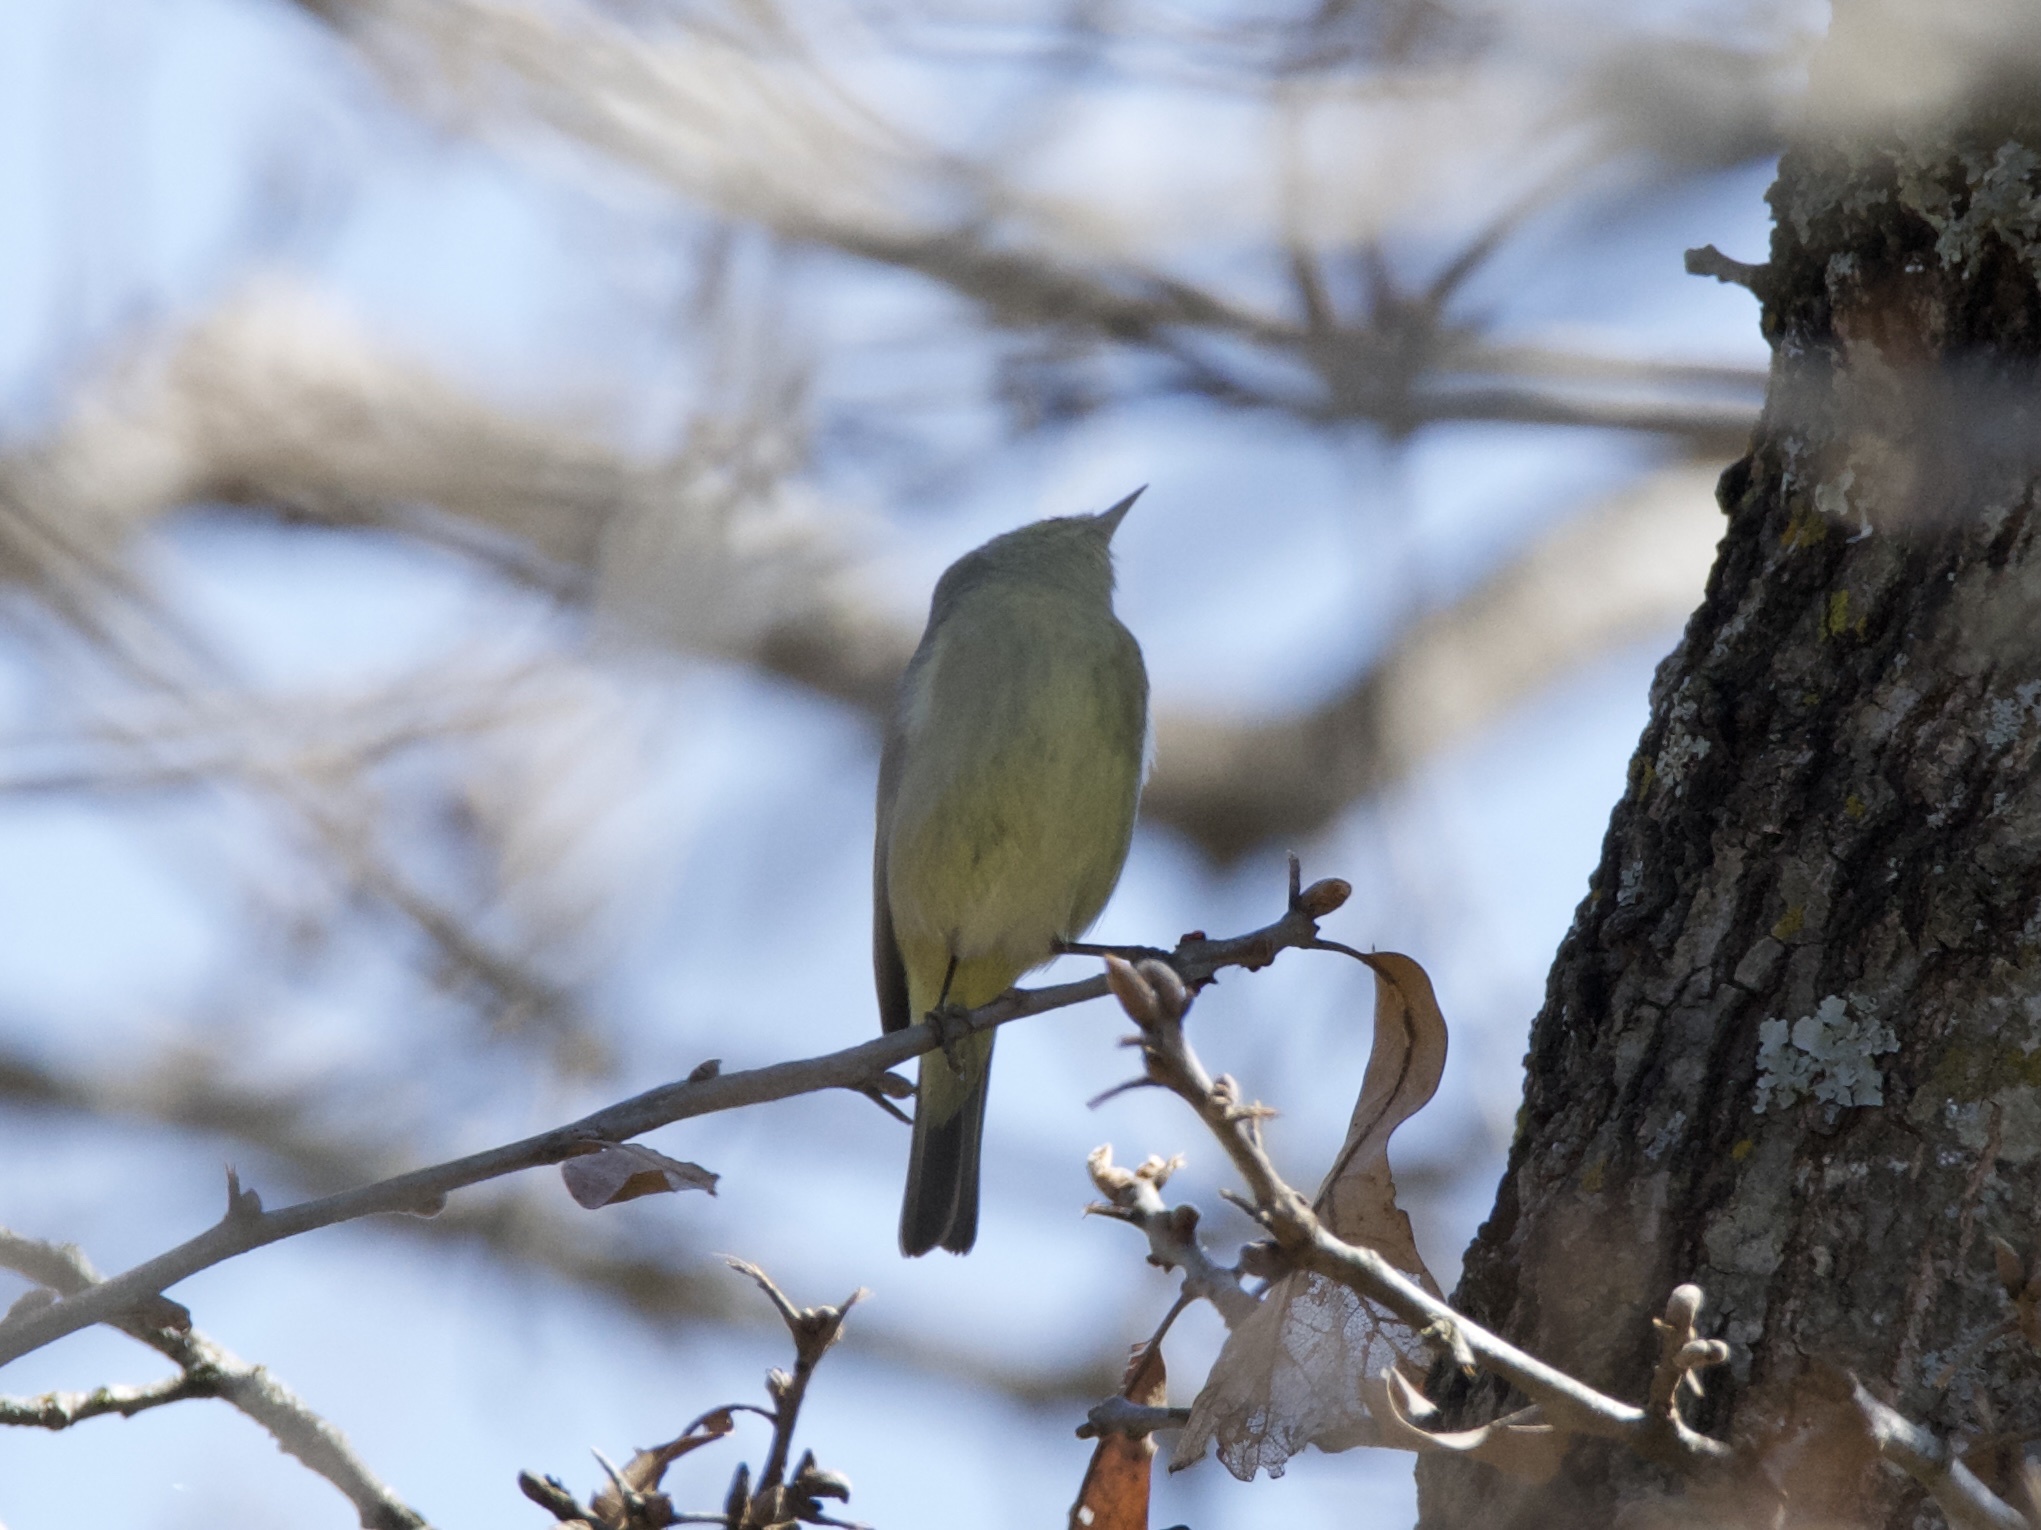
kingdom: Animalia
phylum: Chordata
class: Aves
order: Passeriformes
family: Parulidae
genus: Leiothlypis
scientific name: Leiothlypis celata
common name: Orange-crowned warbler
